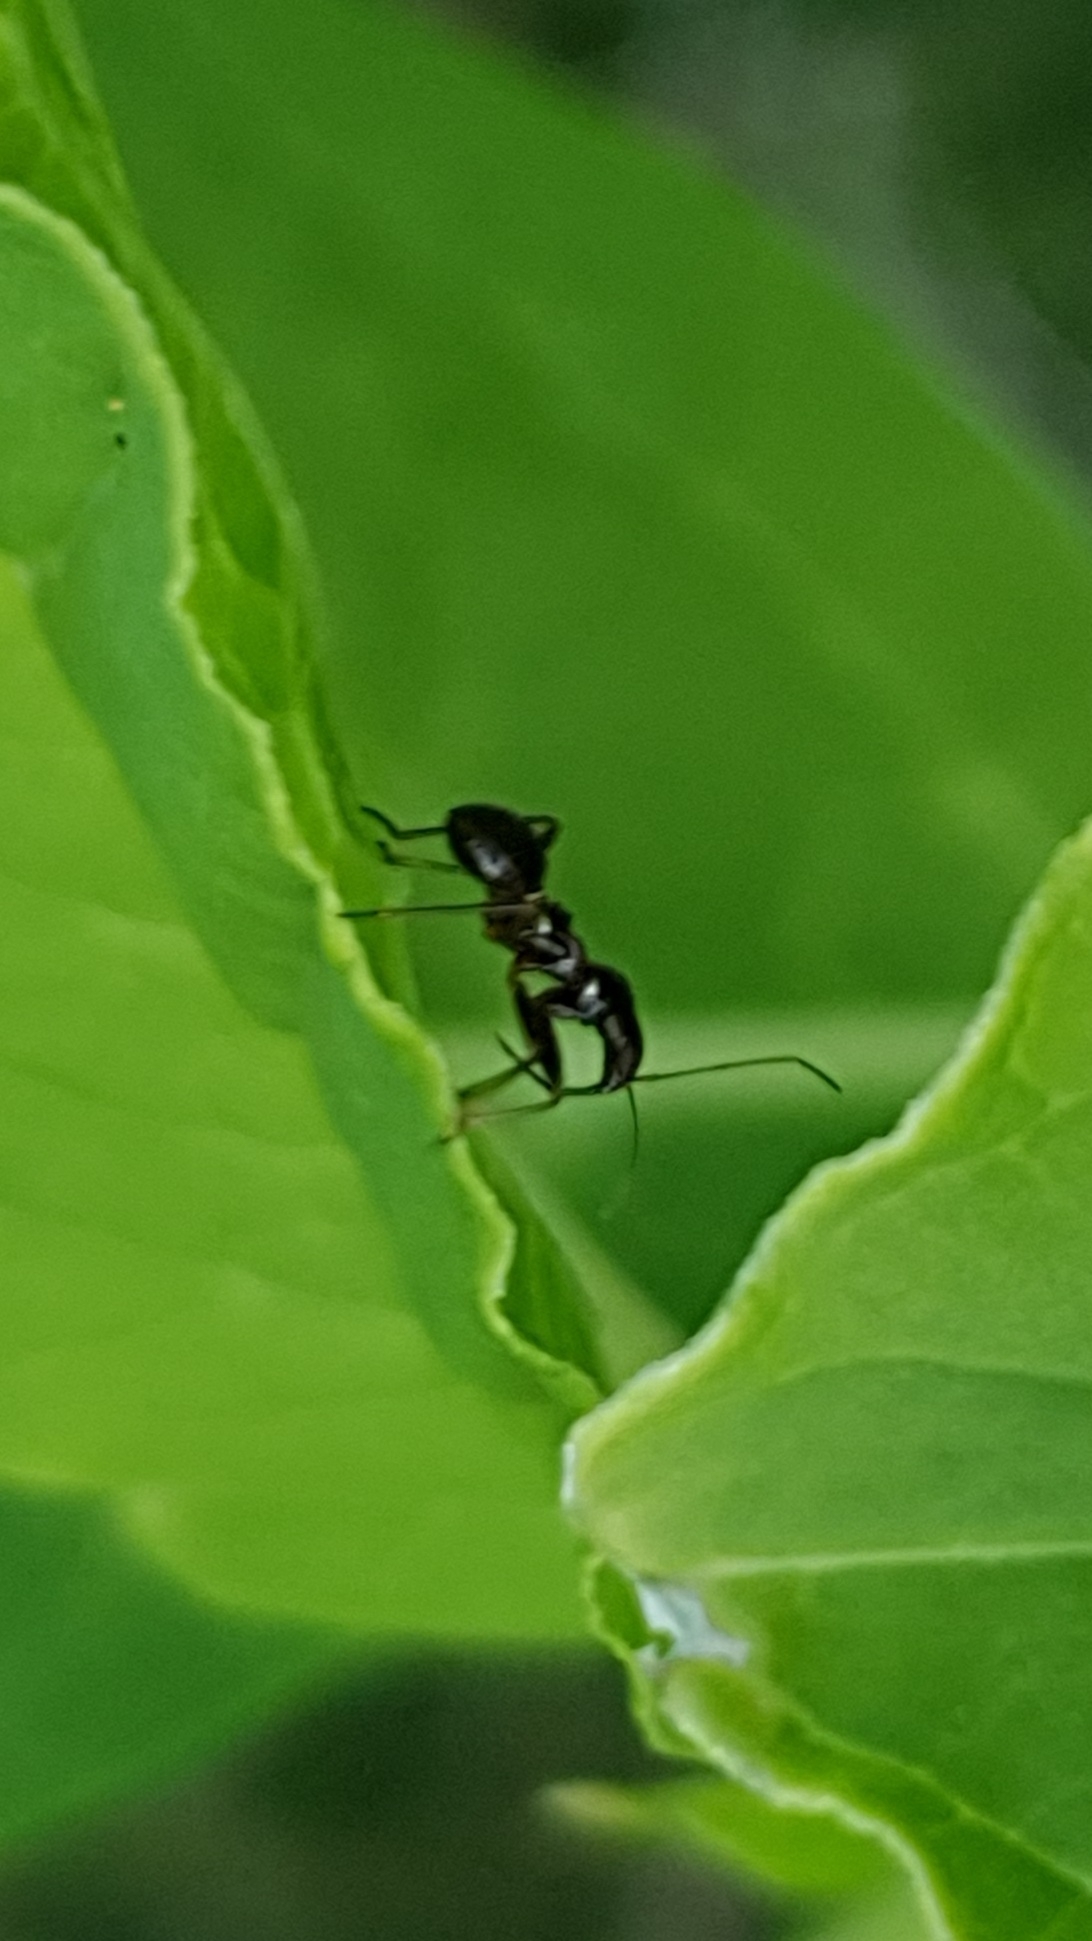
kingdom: Animalia
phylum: Arthropoda
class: Insecta
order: Hemiptera
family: Nabidae
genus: Himacerus
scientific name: Himacerus mirmicoides
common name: Ant damsel bug
